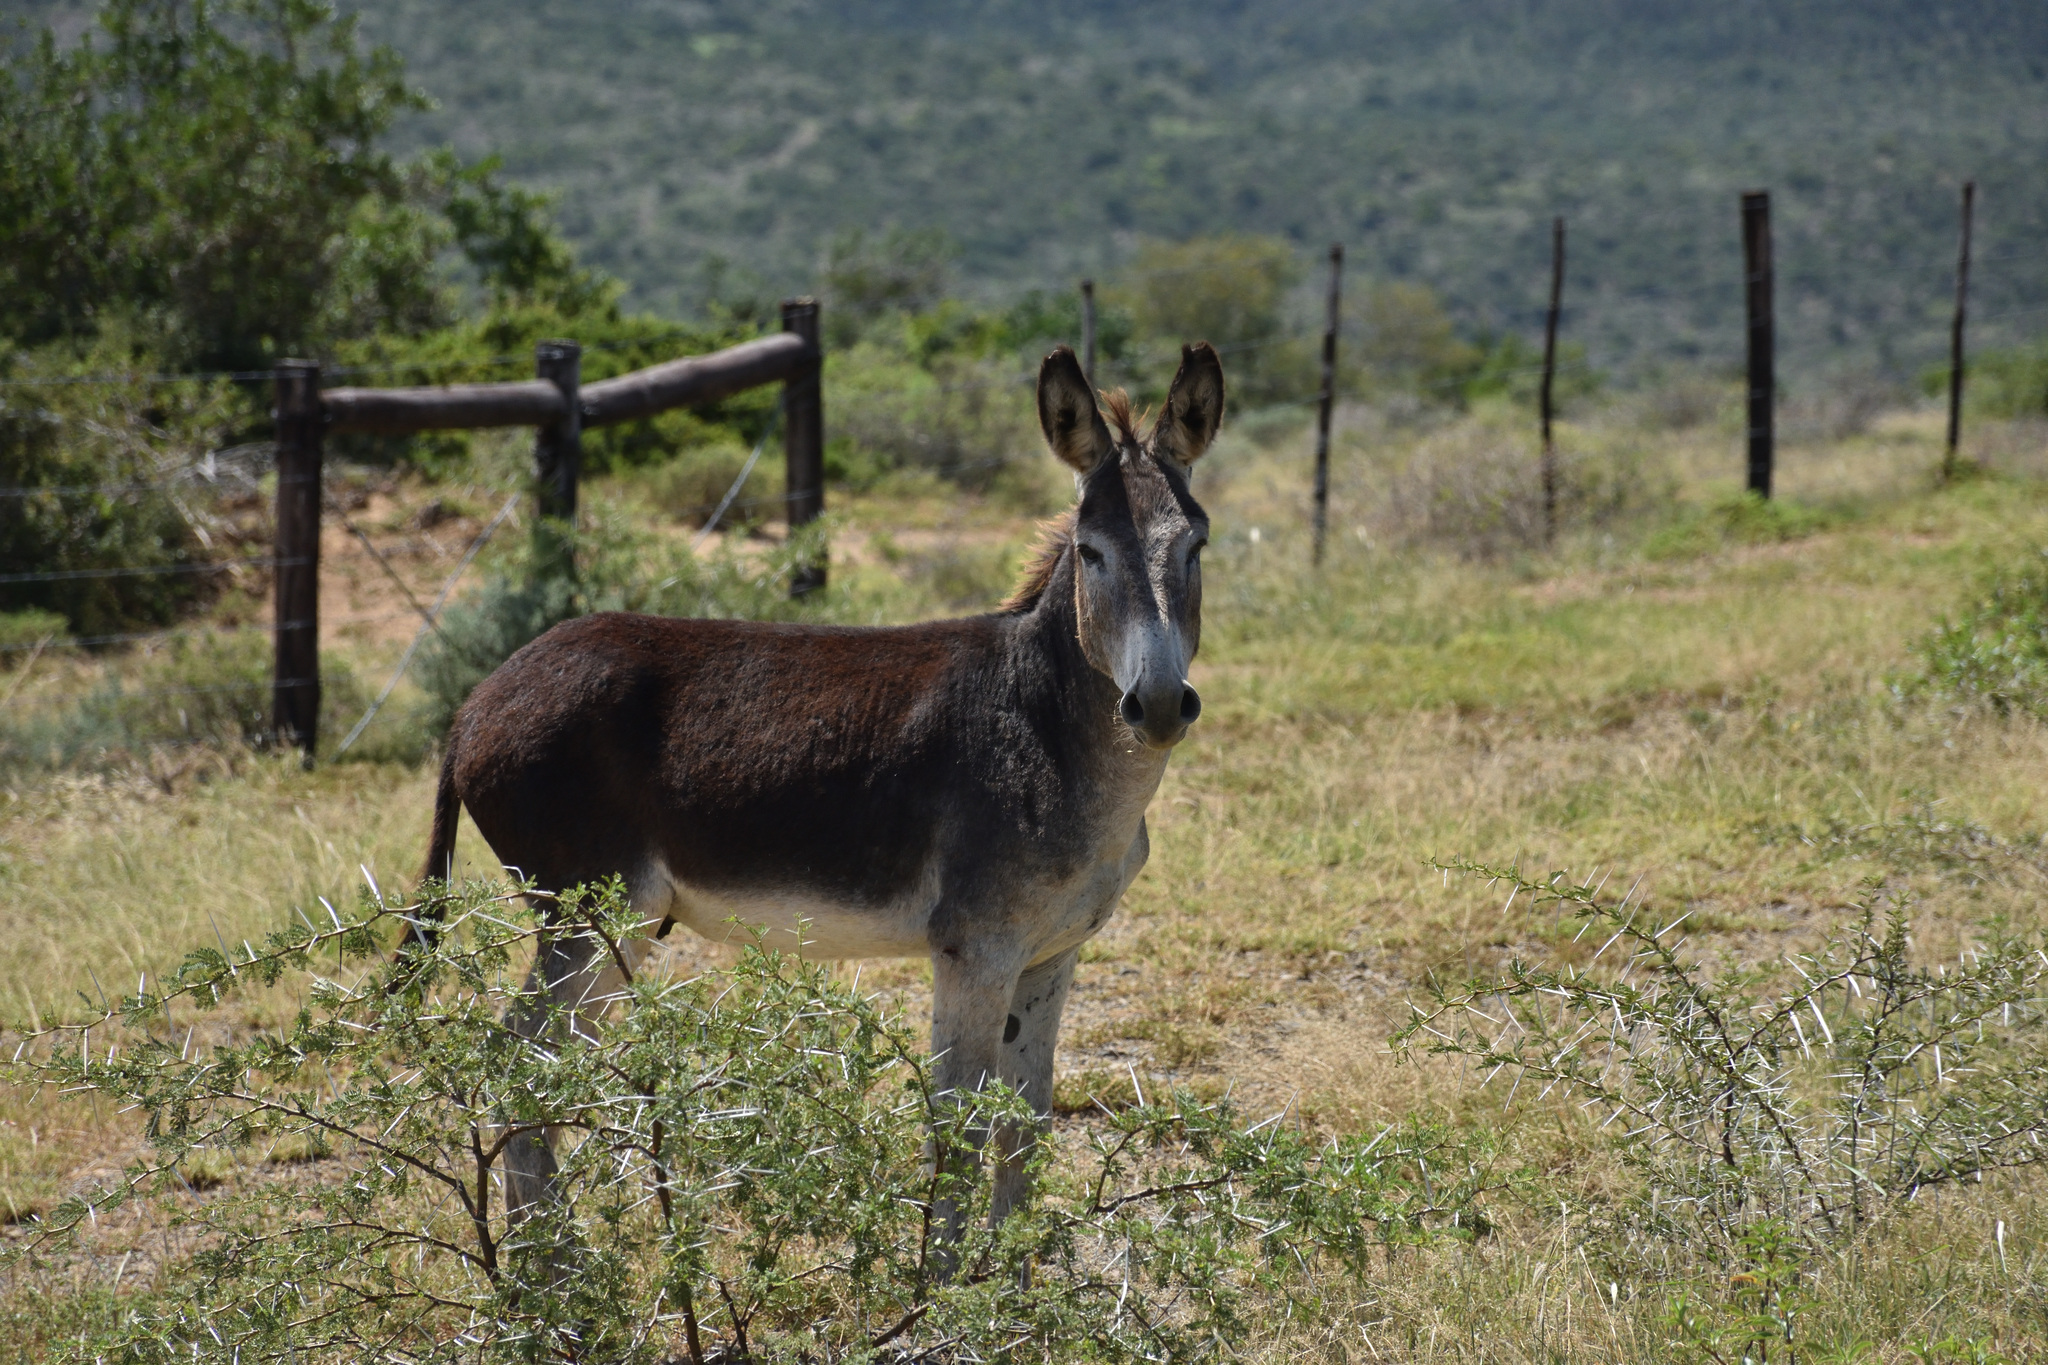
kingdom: Animalia
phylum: Chordata
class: Mammalia
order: Perissodactyla
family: Equidae
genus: Equus
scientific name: Equus asinus
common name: Ass
